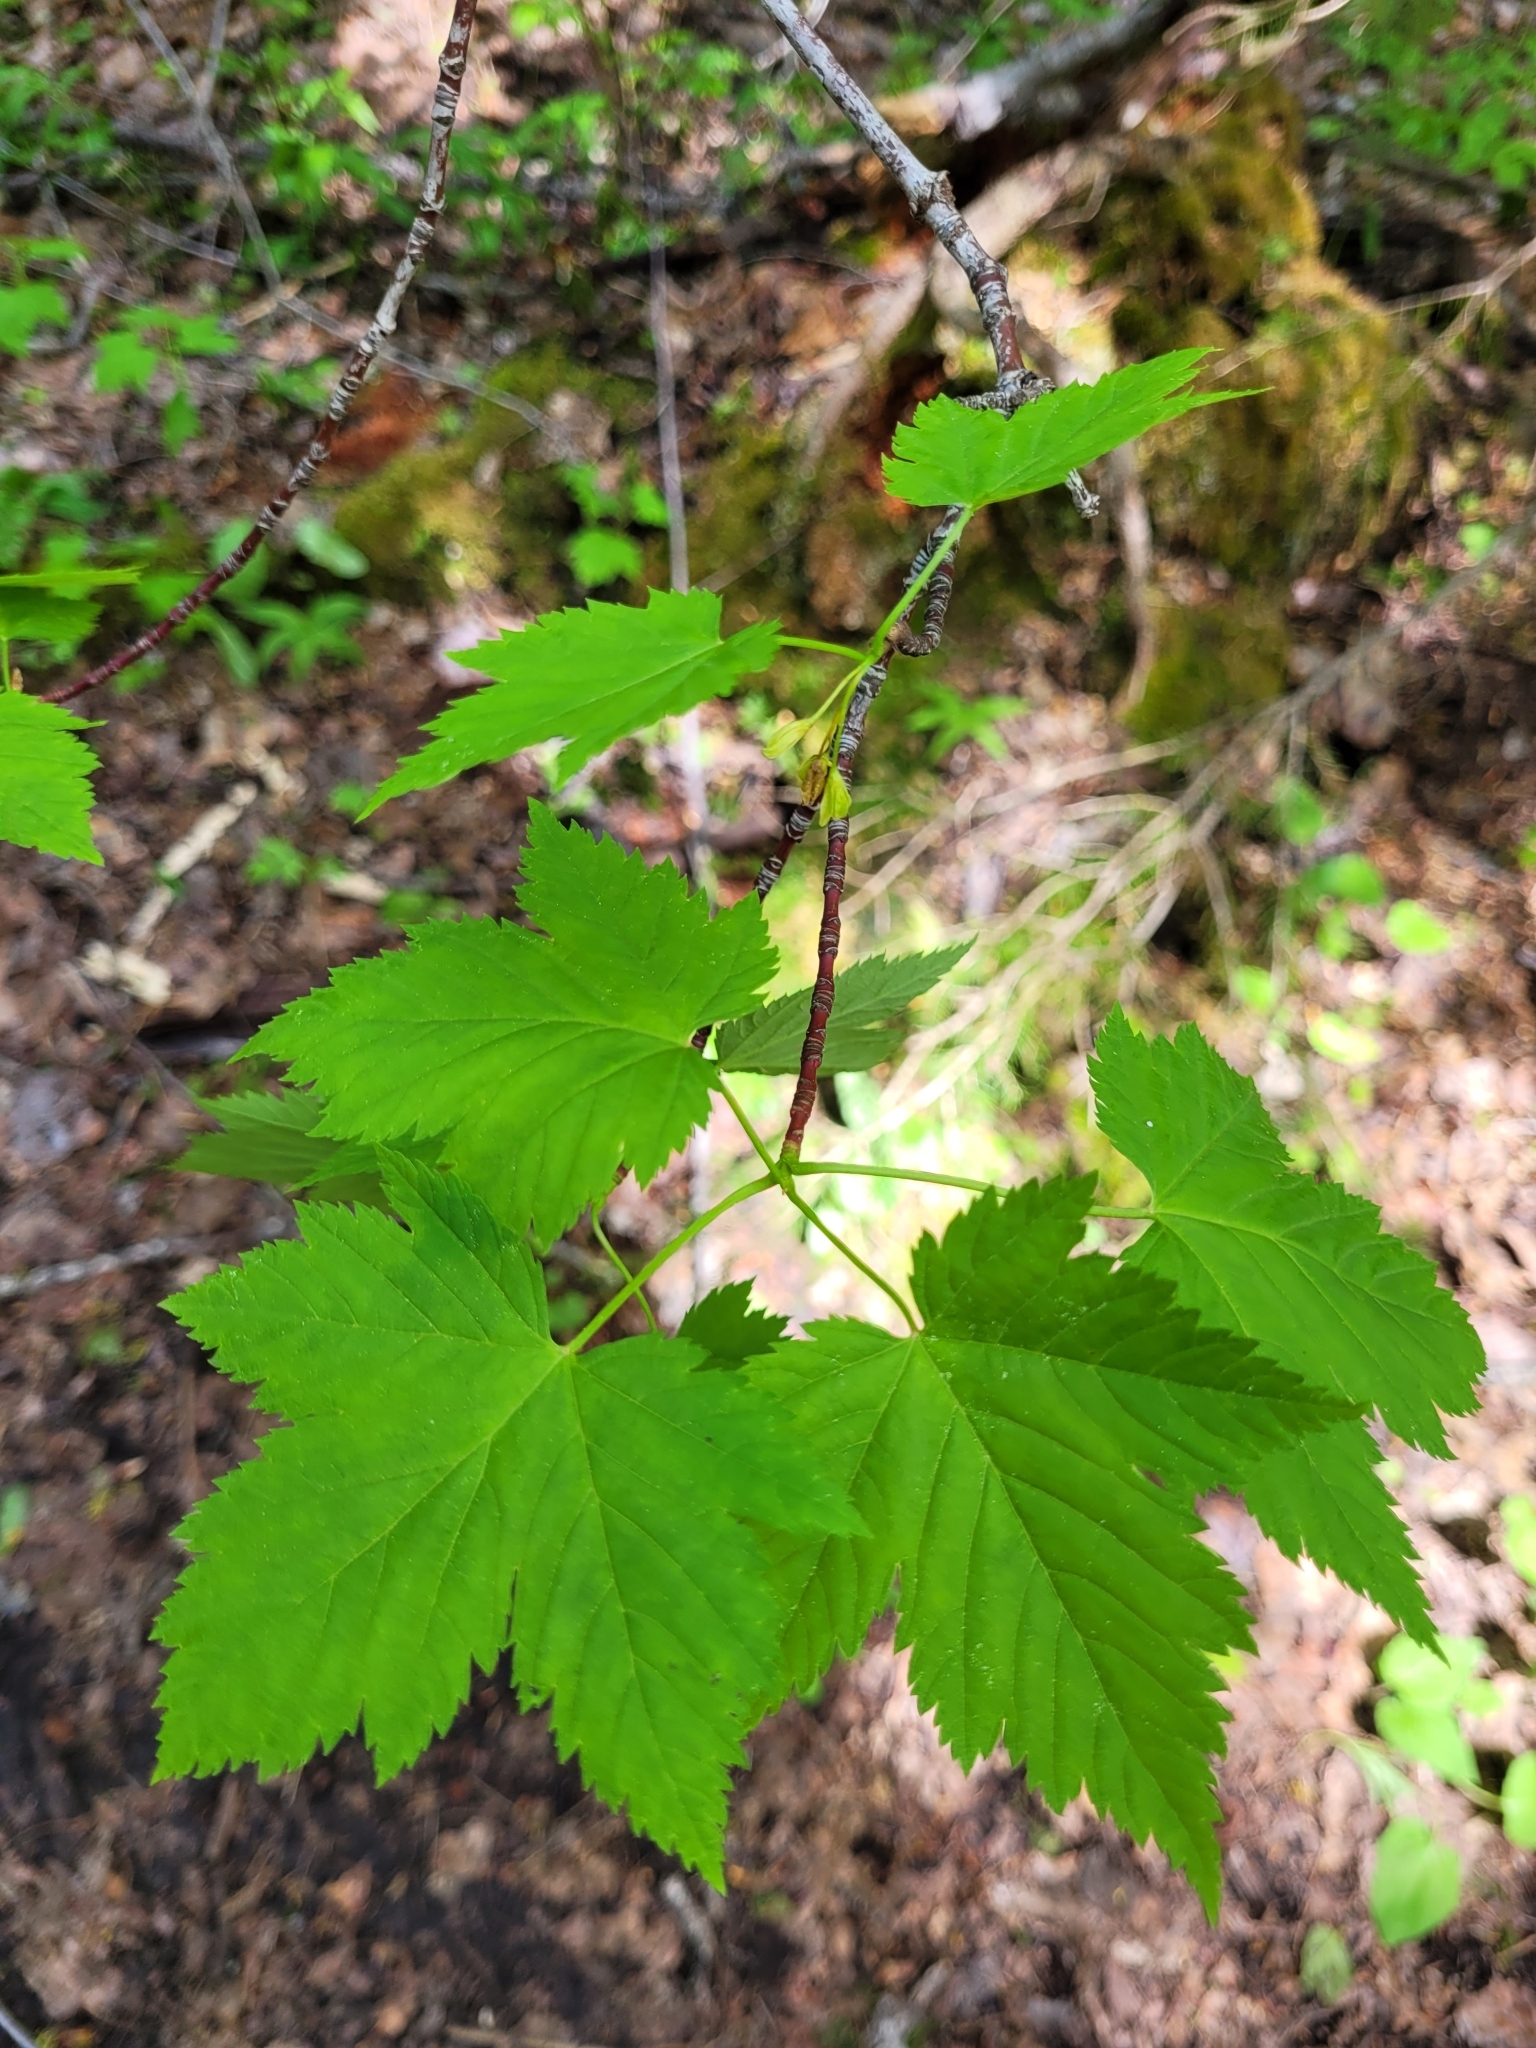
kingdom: Plantae
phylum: Tracheophyta
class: Magnoliopsida
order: Sapindales
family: Sapindaceae
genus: Acer
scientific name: Acer glabrum
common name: Rocky mountain maple
